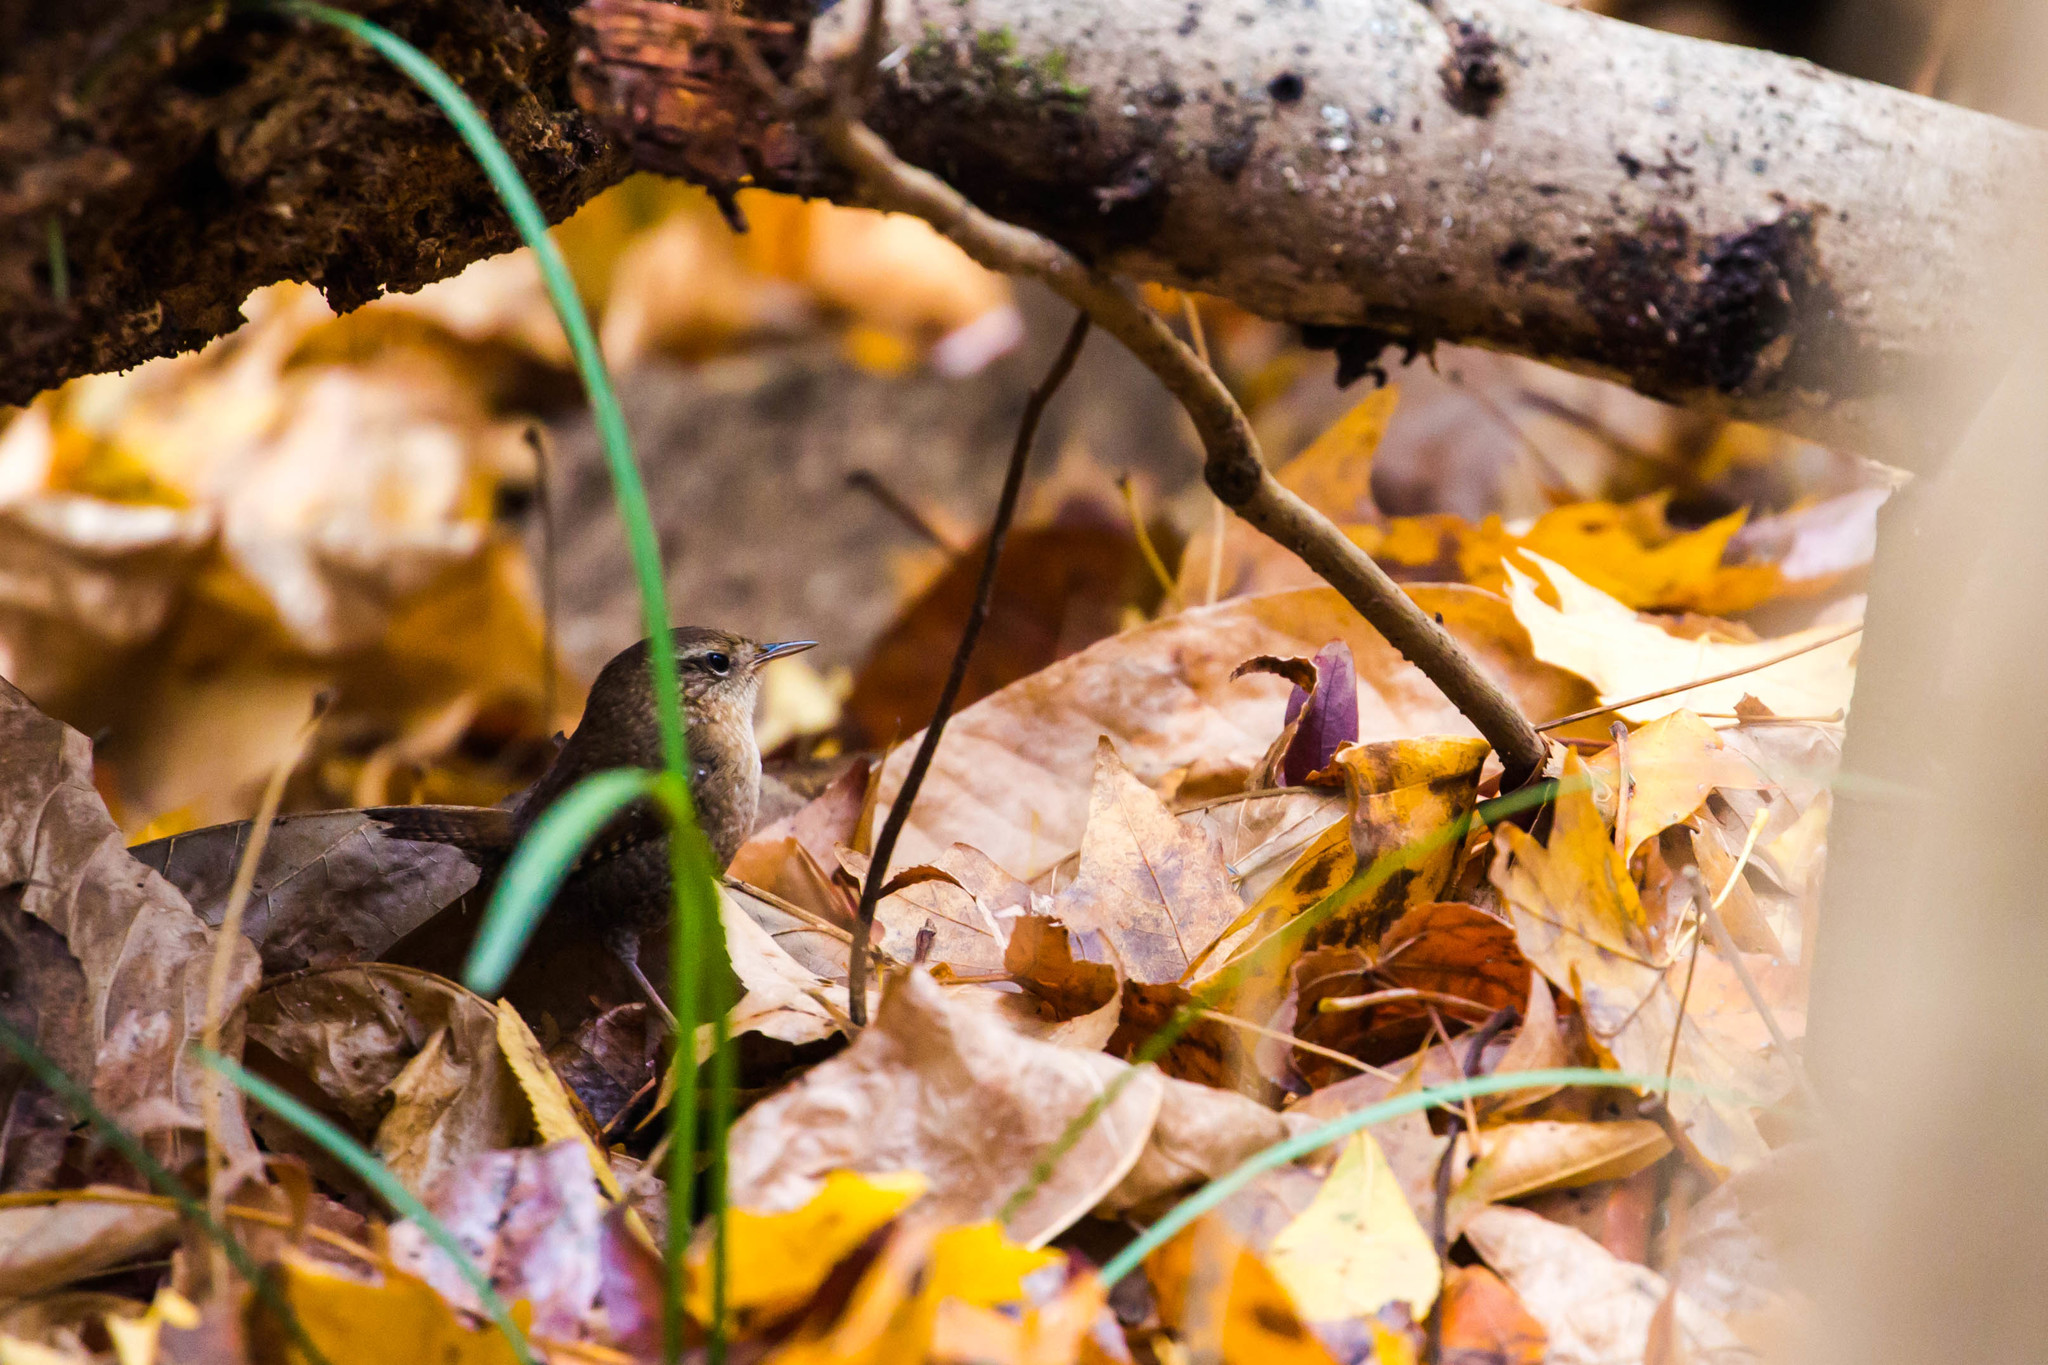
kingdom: Animalia
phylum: Chordata
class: Aves
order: Passeriformes
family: Troglodytidae
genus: Troglodytes
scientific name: Troglodytes hiemalis
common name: Winter wren
